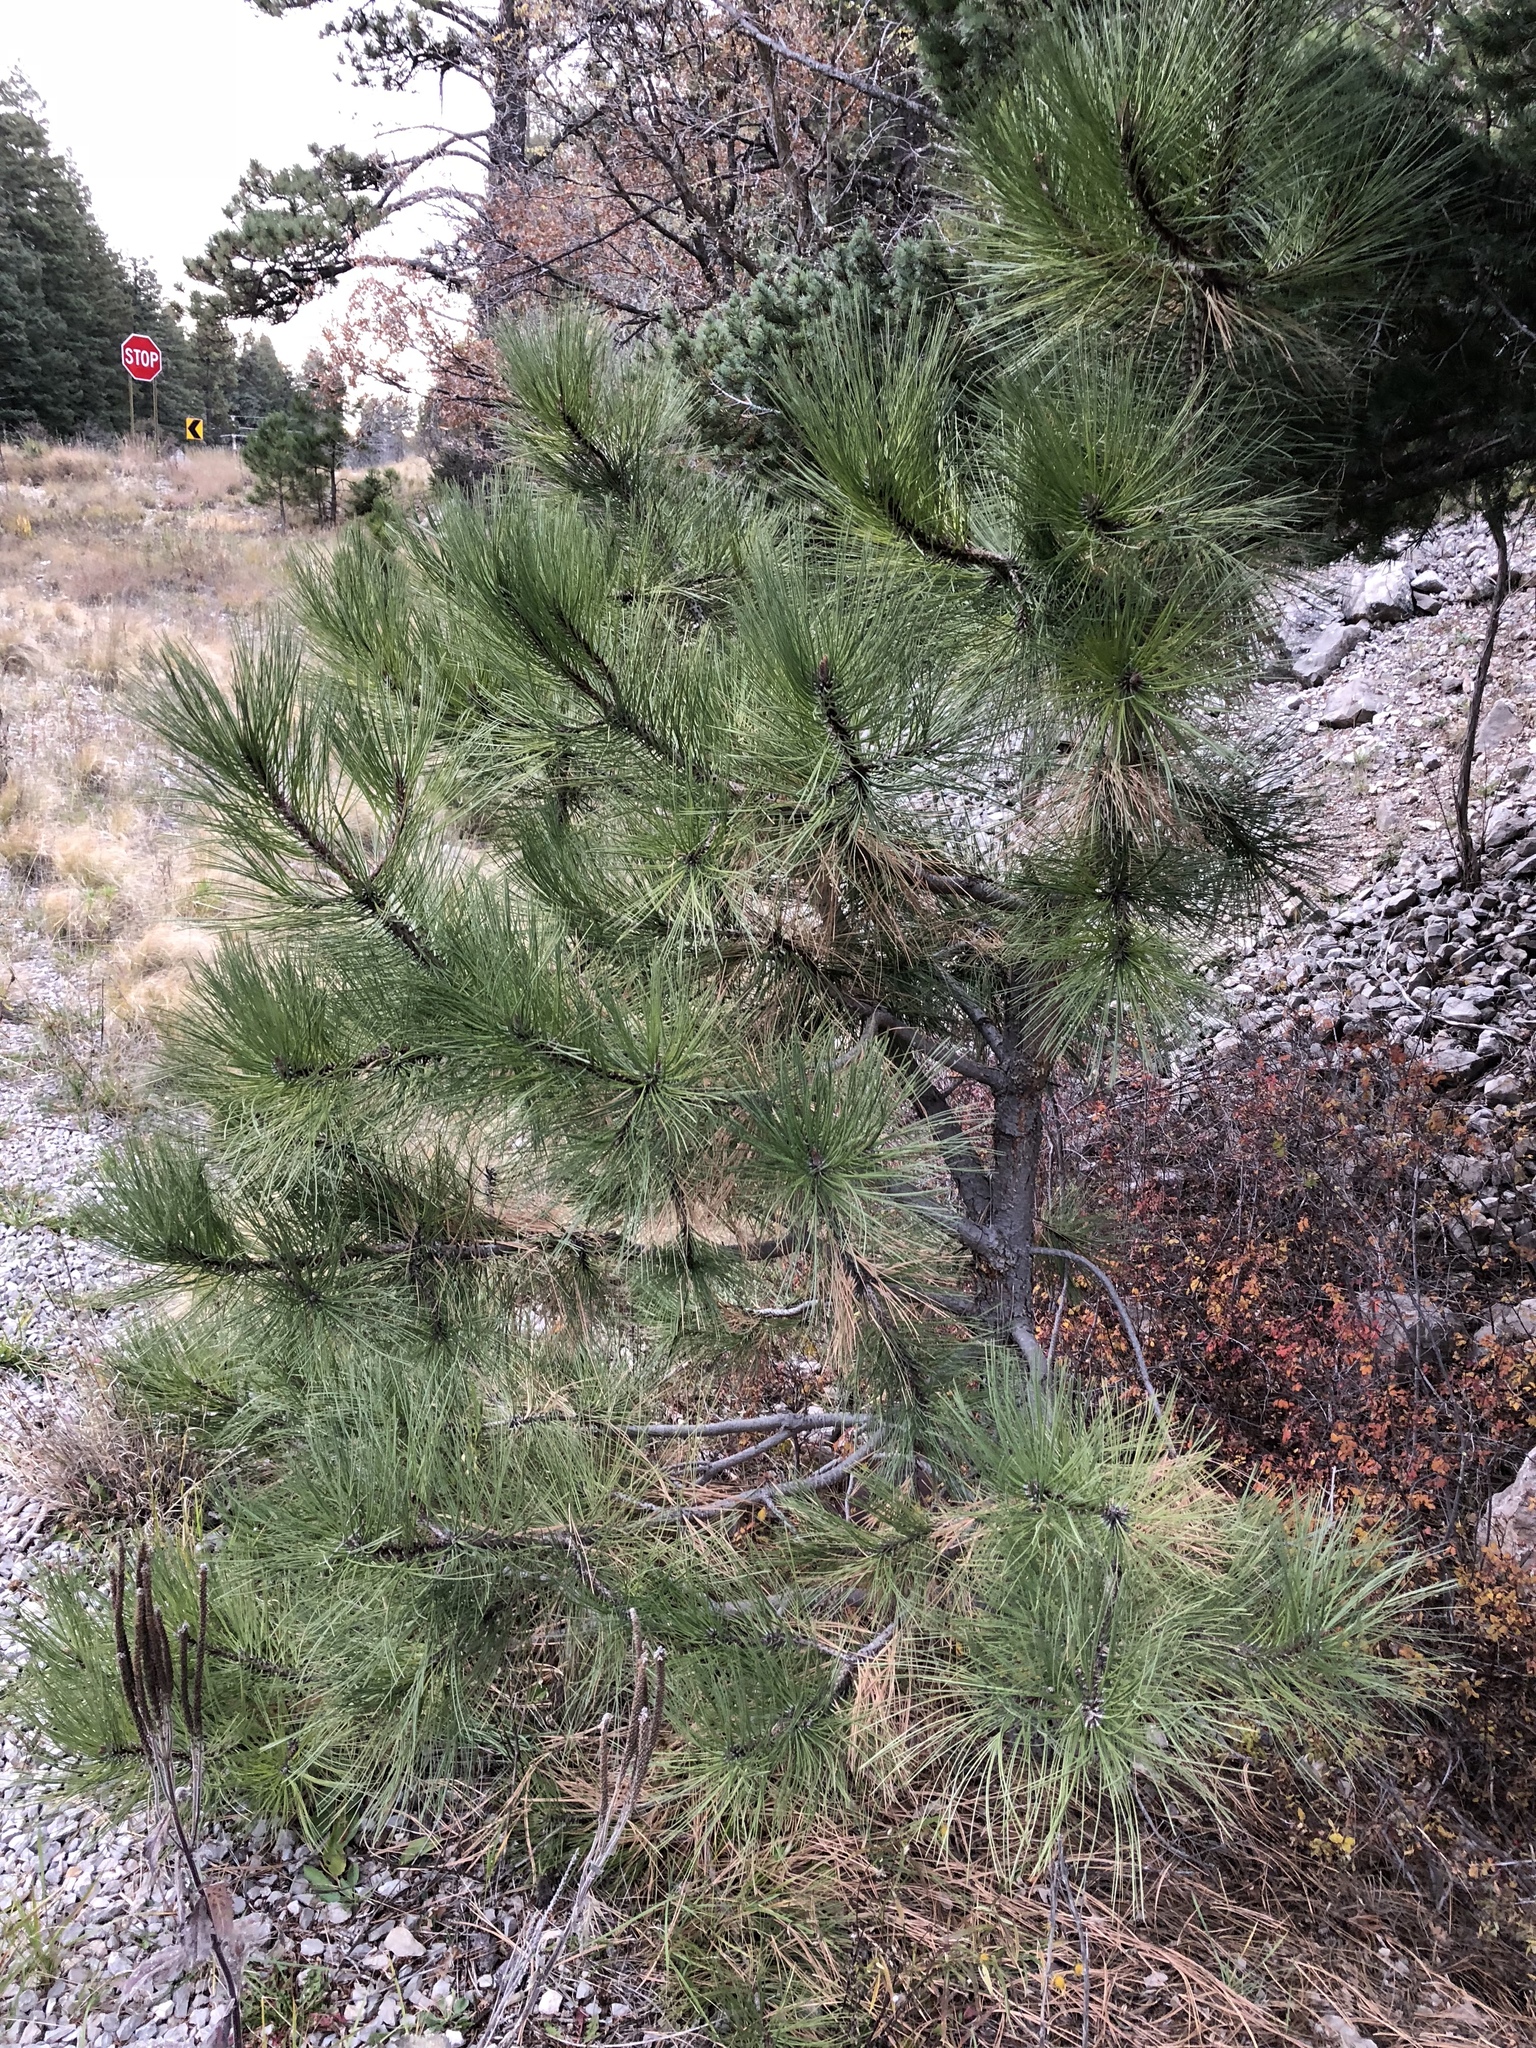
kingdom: Plantae
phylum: Tracheophyta
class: Pinopsida
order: Pinales
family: Pinaceae
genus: Pinus
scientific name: Pinus ponderosa
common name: Western yellow-pine
